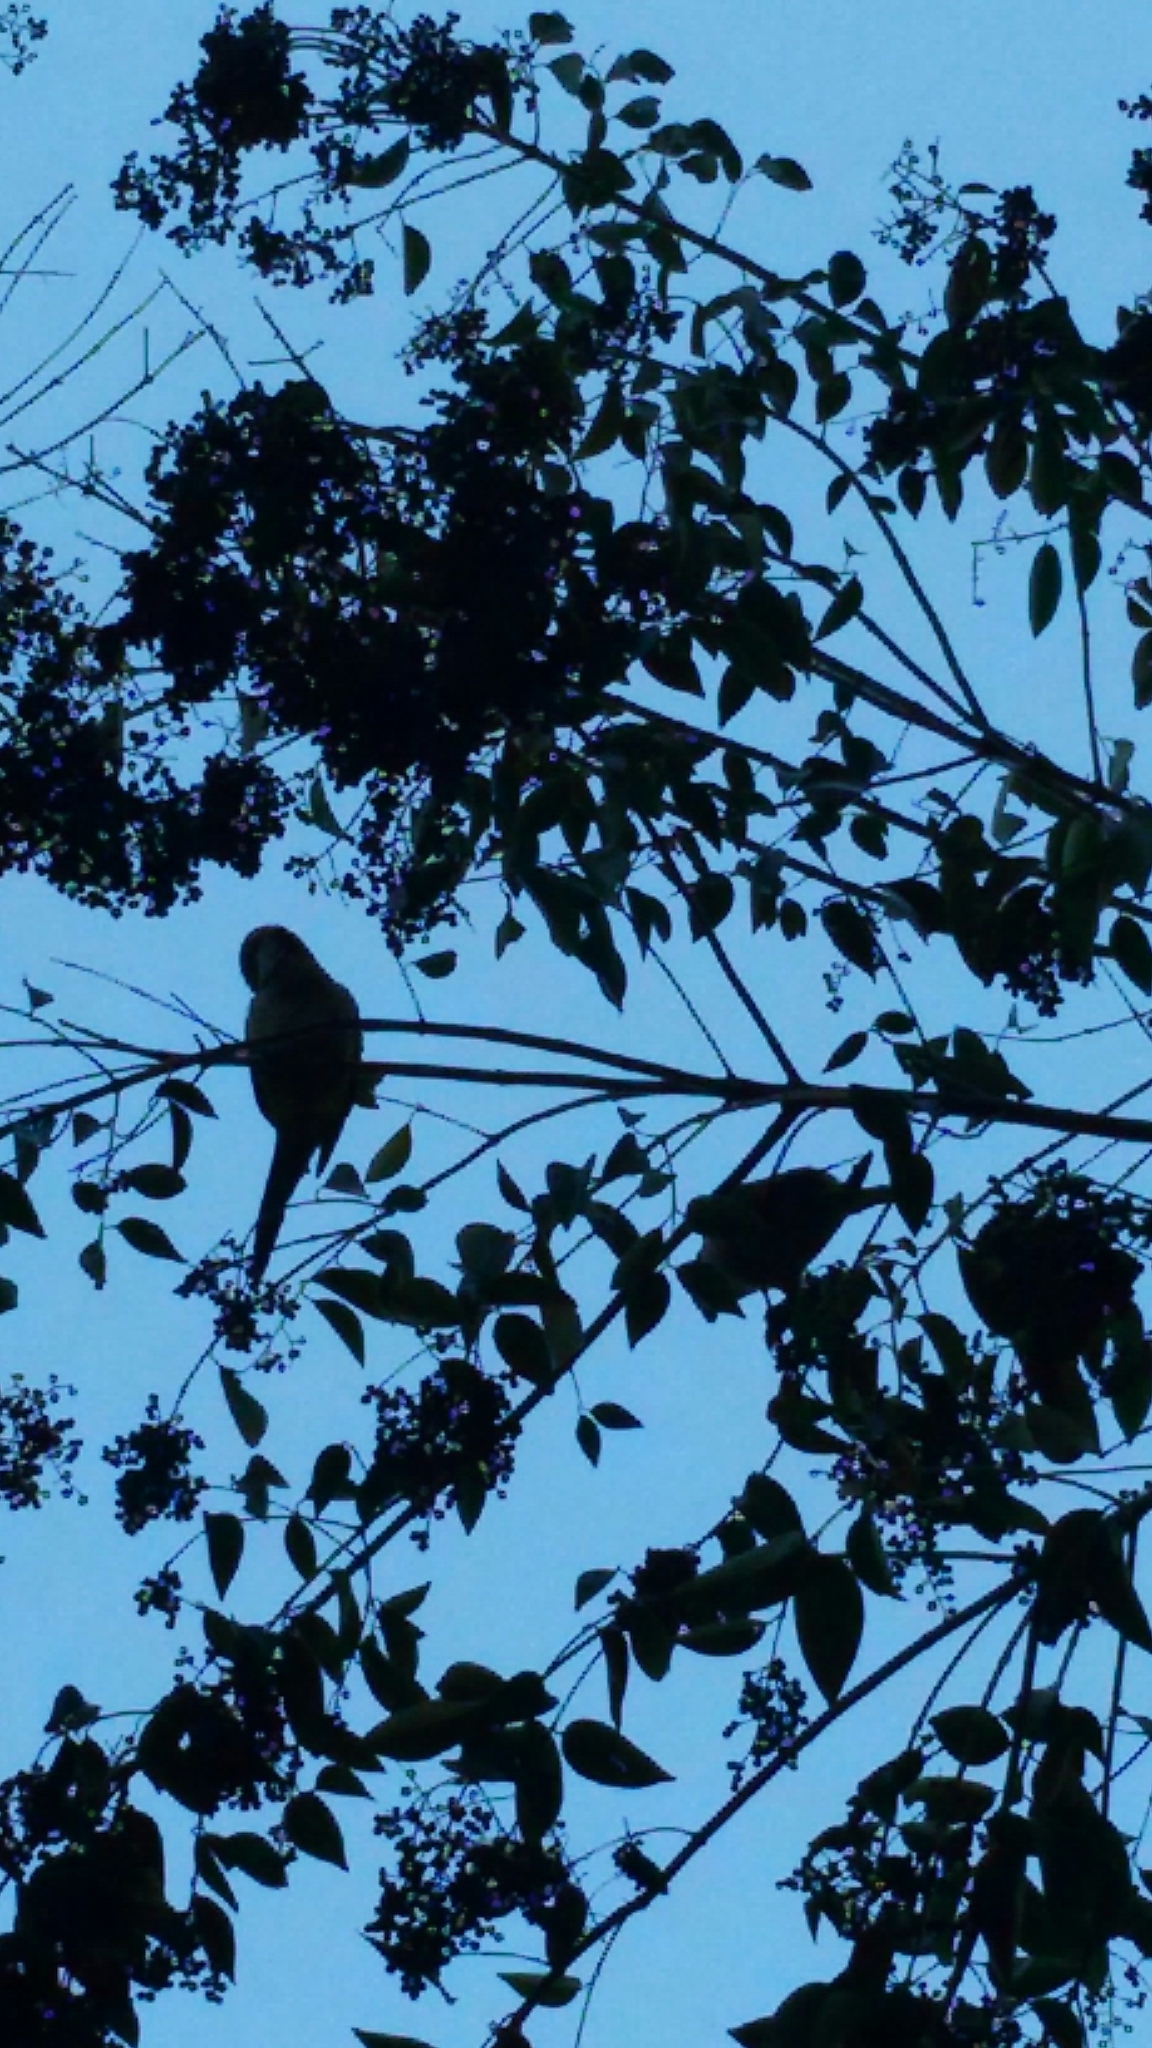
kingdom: Animalia
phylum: Chordata
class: Aves
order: Psittaciformes
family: Psittacidae
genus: Myiopsitta
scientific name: Myiopsitta monachus
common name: Monk parakeet
